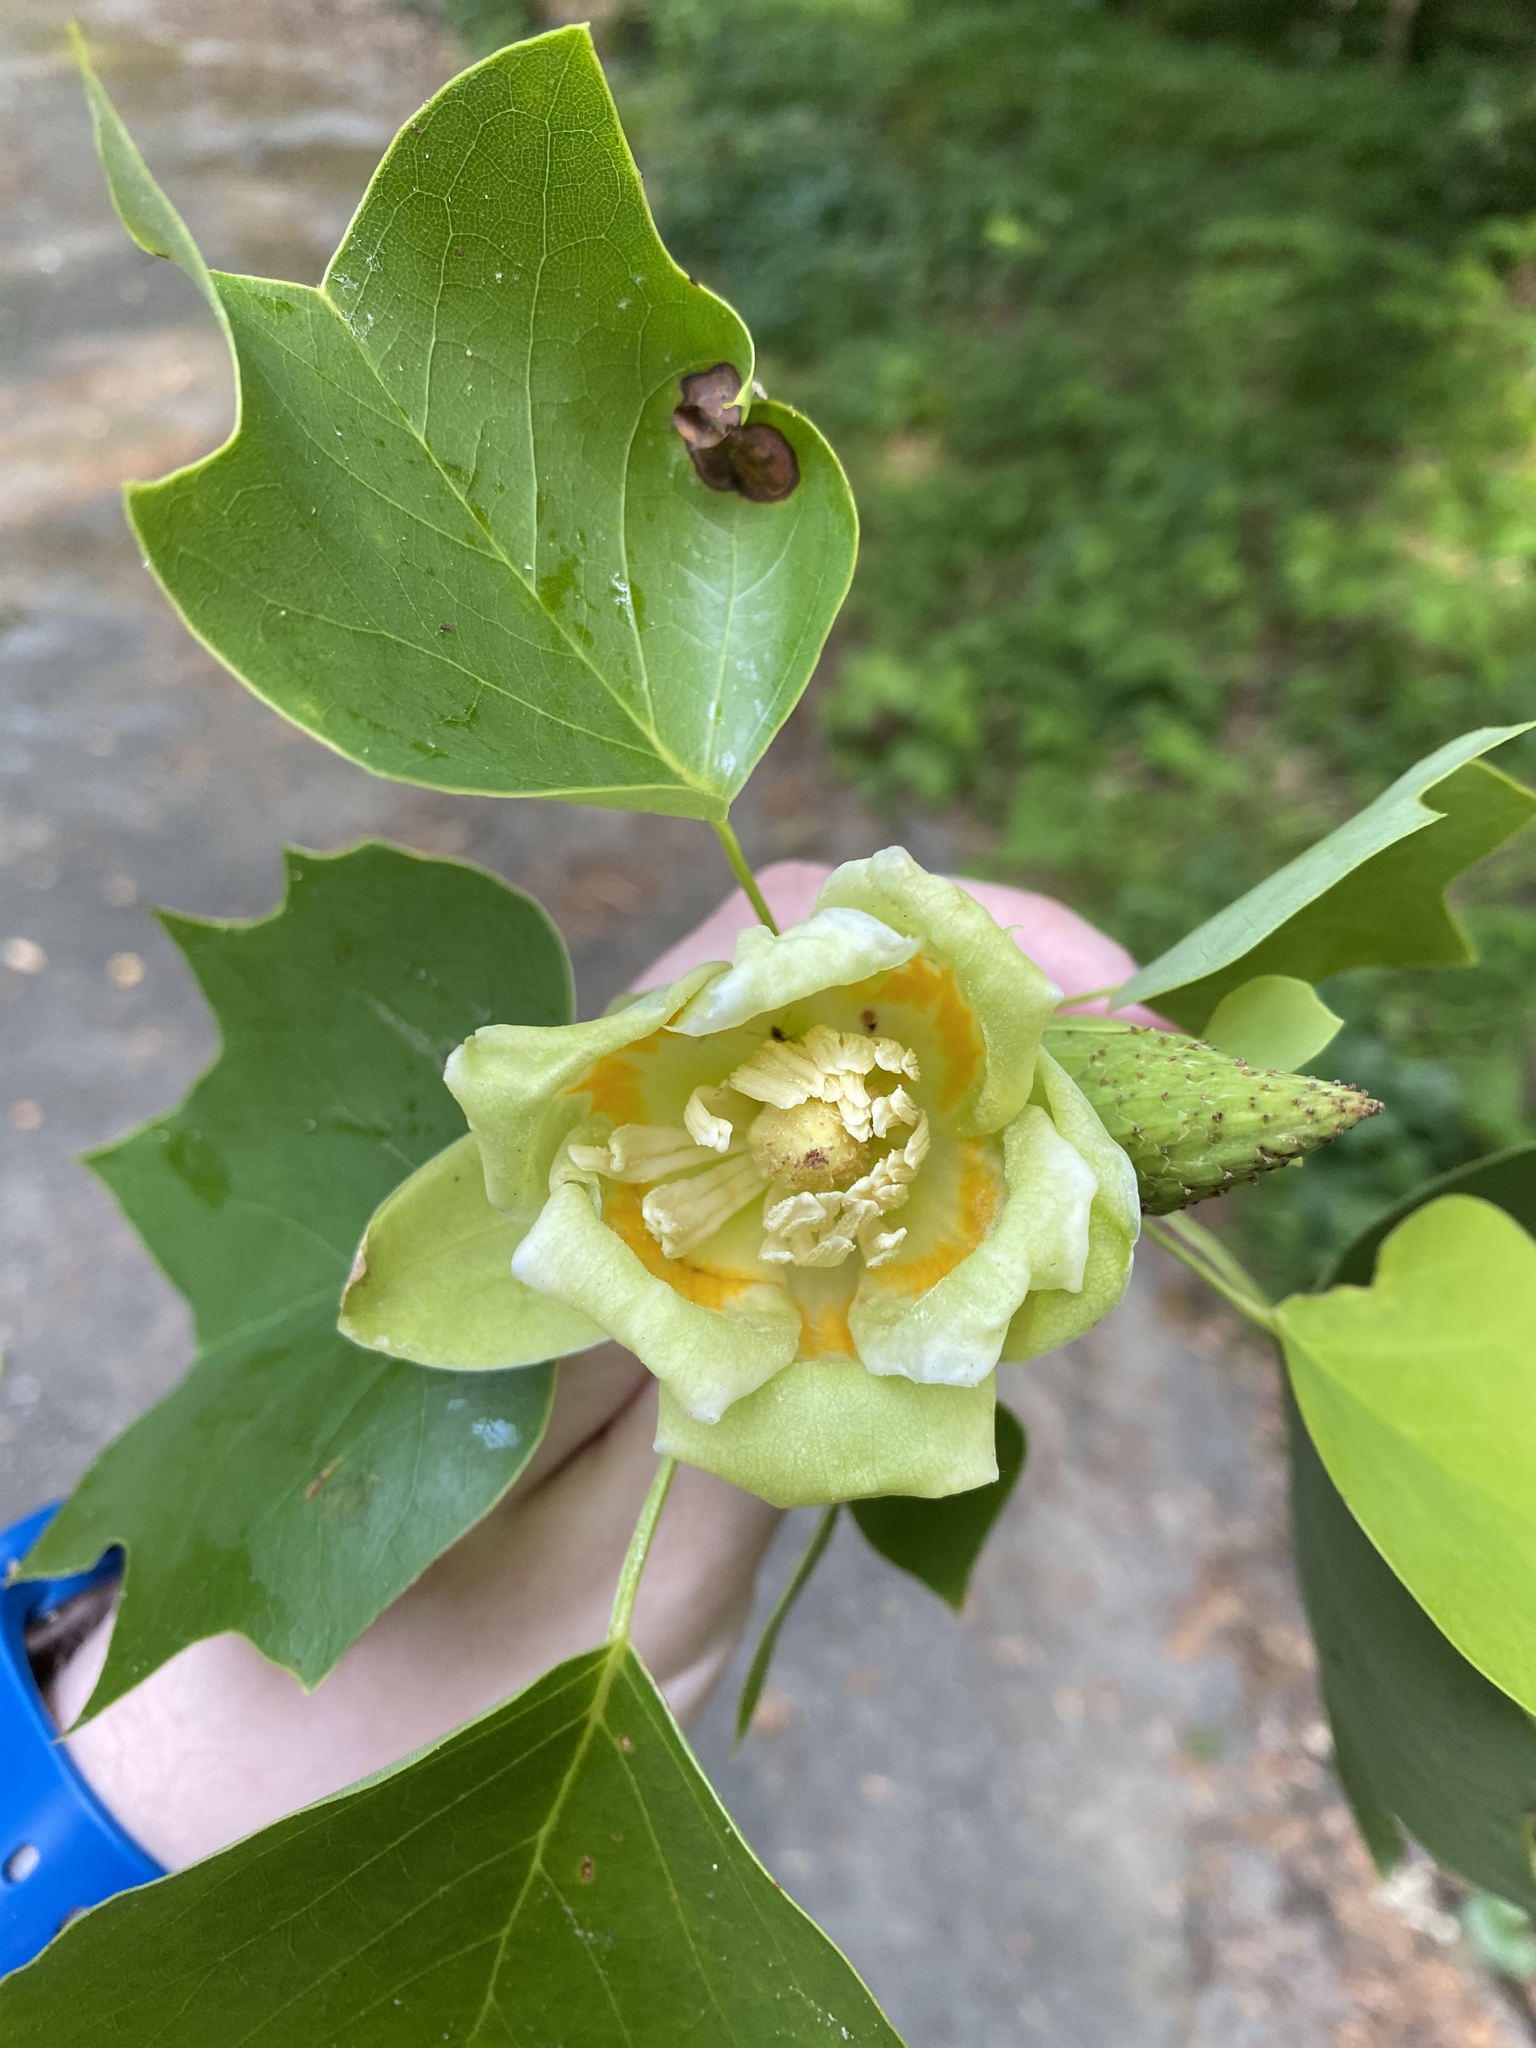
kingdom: Plantae
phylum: Tracheophyta
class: Magnoliopsida
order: Magnoliales
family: Magnoliaceae
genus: Liriodendron
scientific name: Liriodendron tulipifera
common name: Tulip tree
